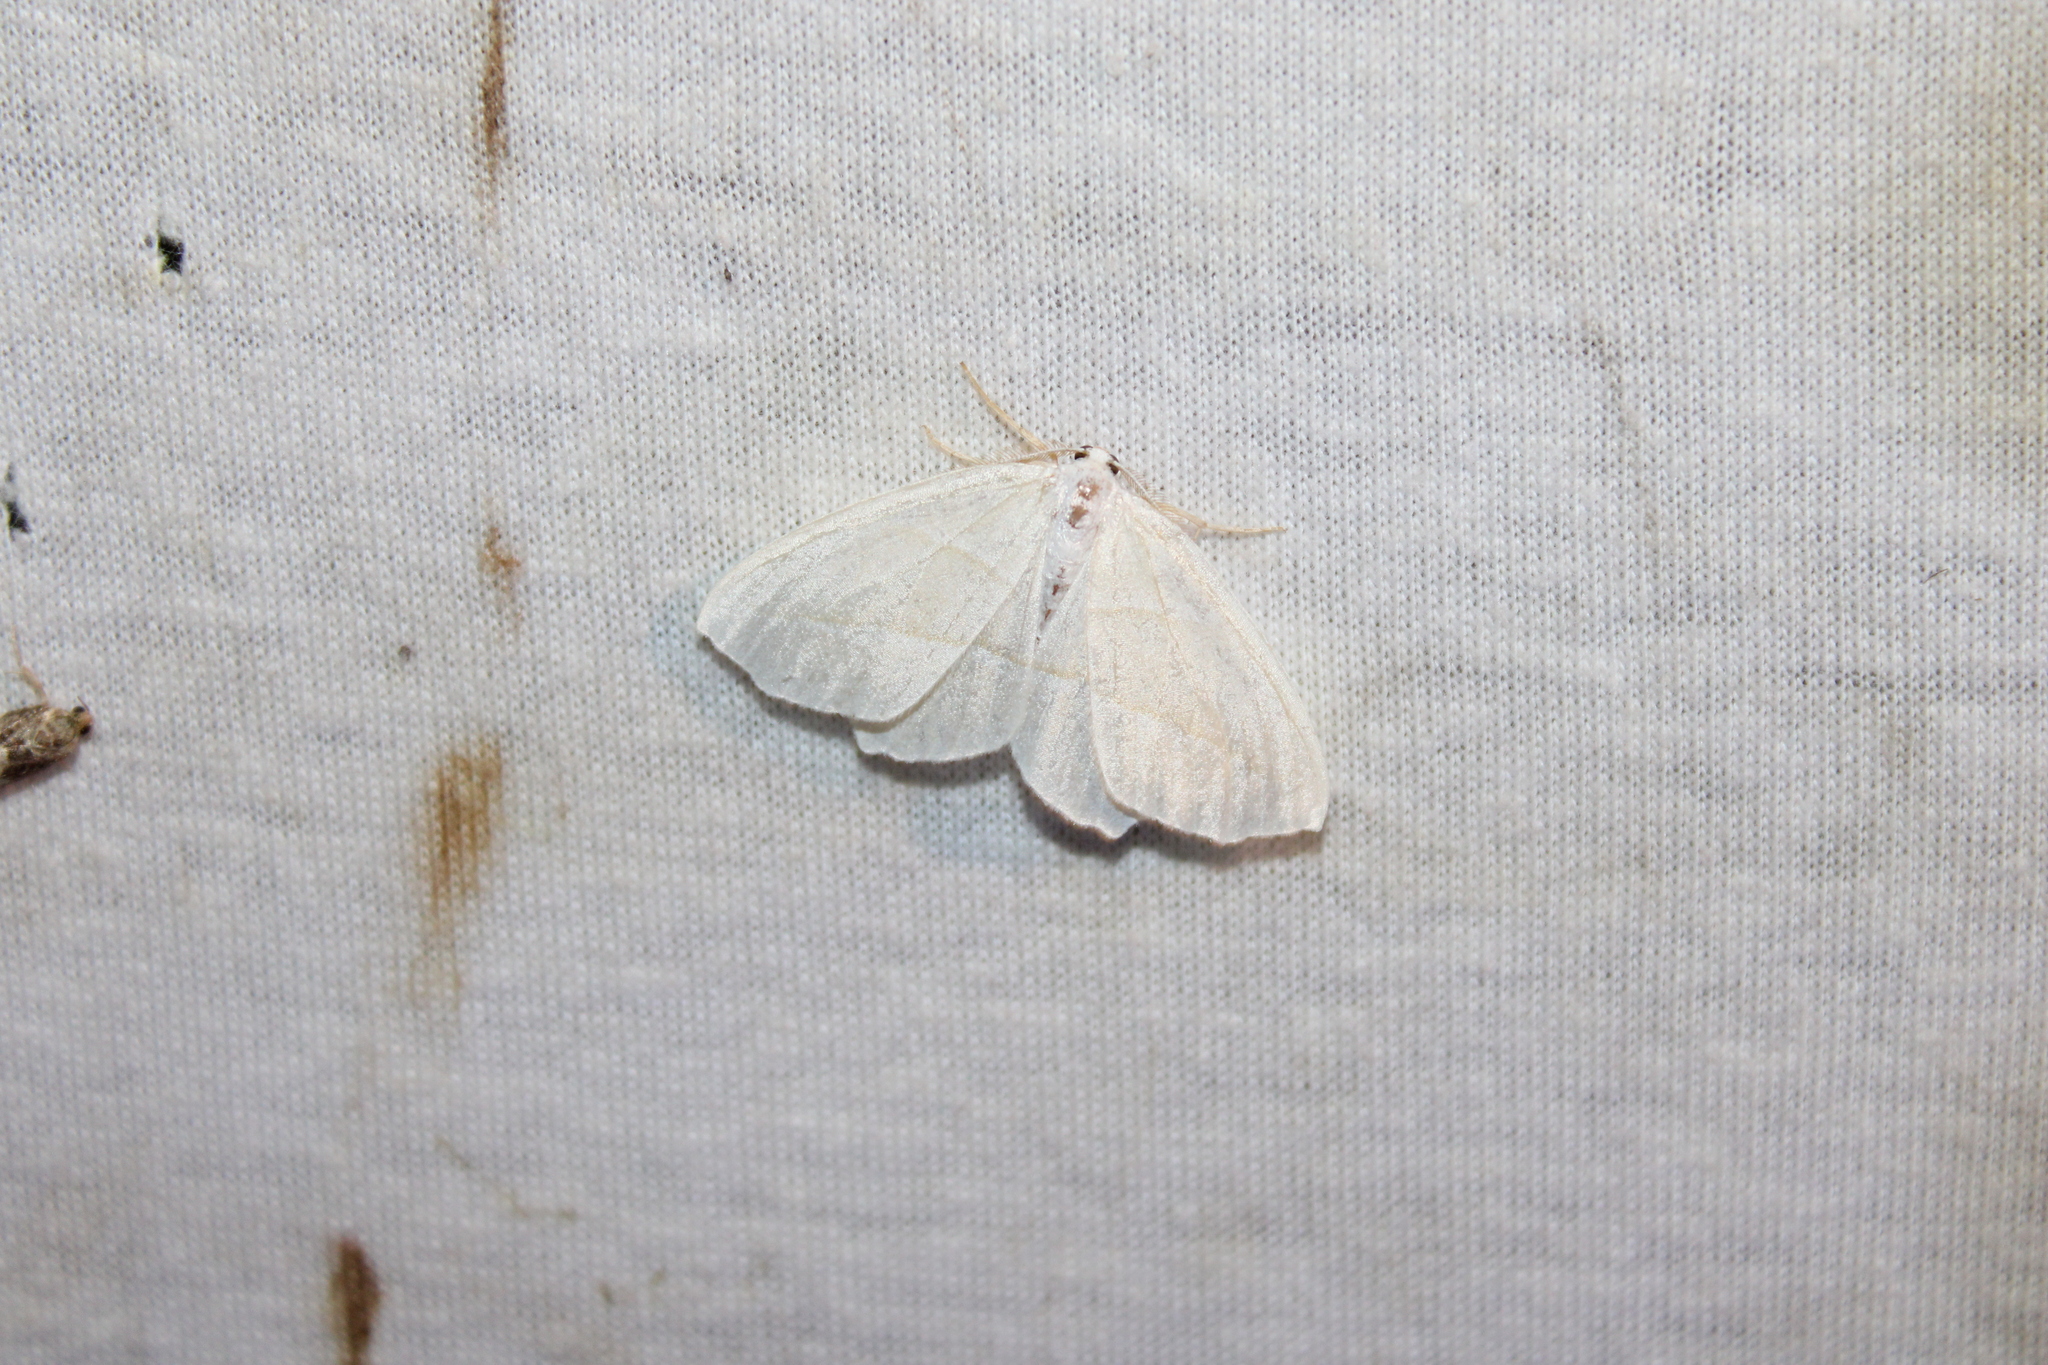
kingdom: Animalia
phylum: Arthropoda
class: Insecta
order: Lepidoptera
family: Geometridae
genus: Campaea
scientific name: Campaea perlata
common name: Fringed looper
